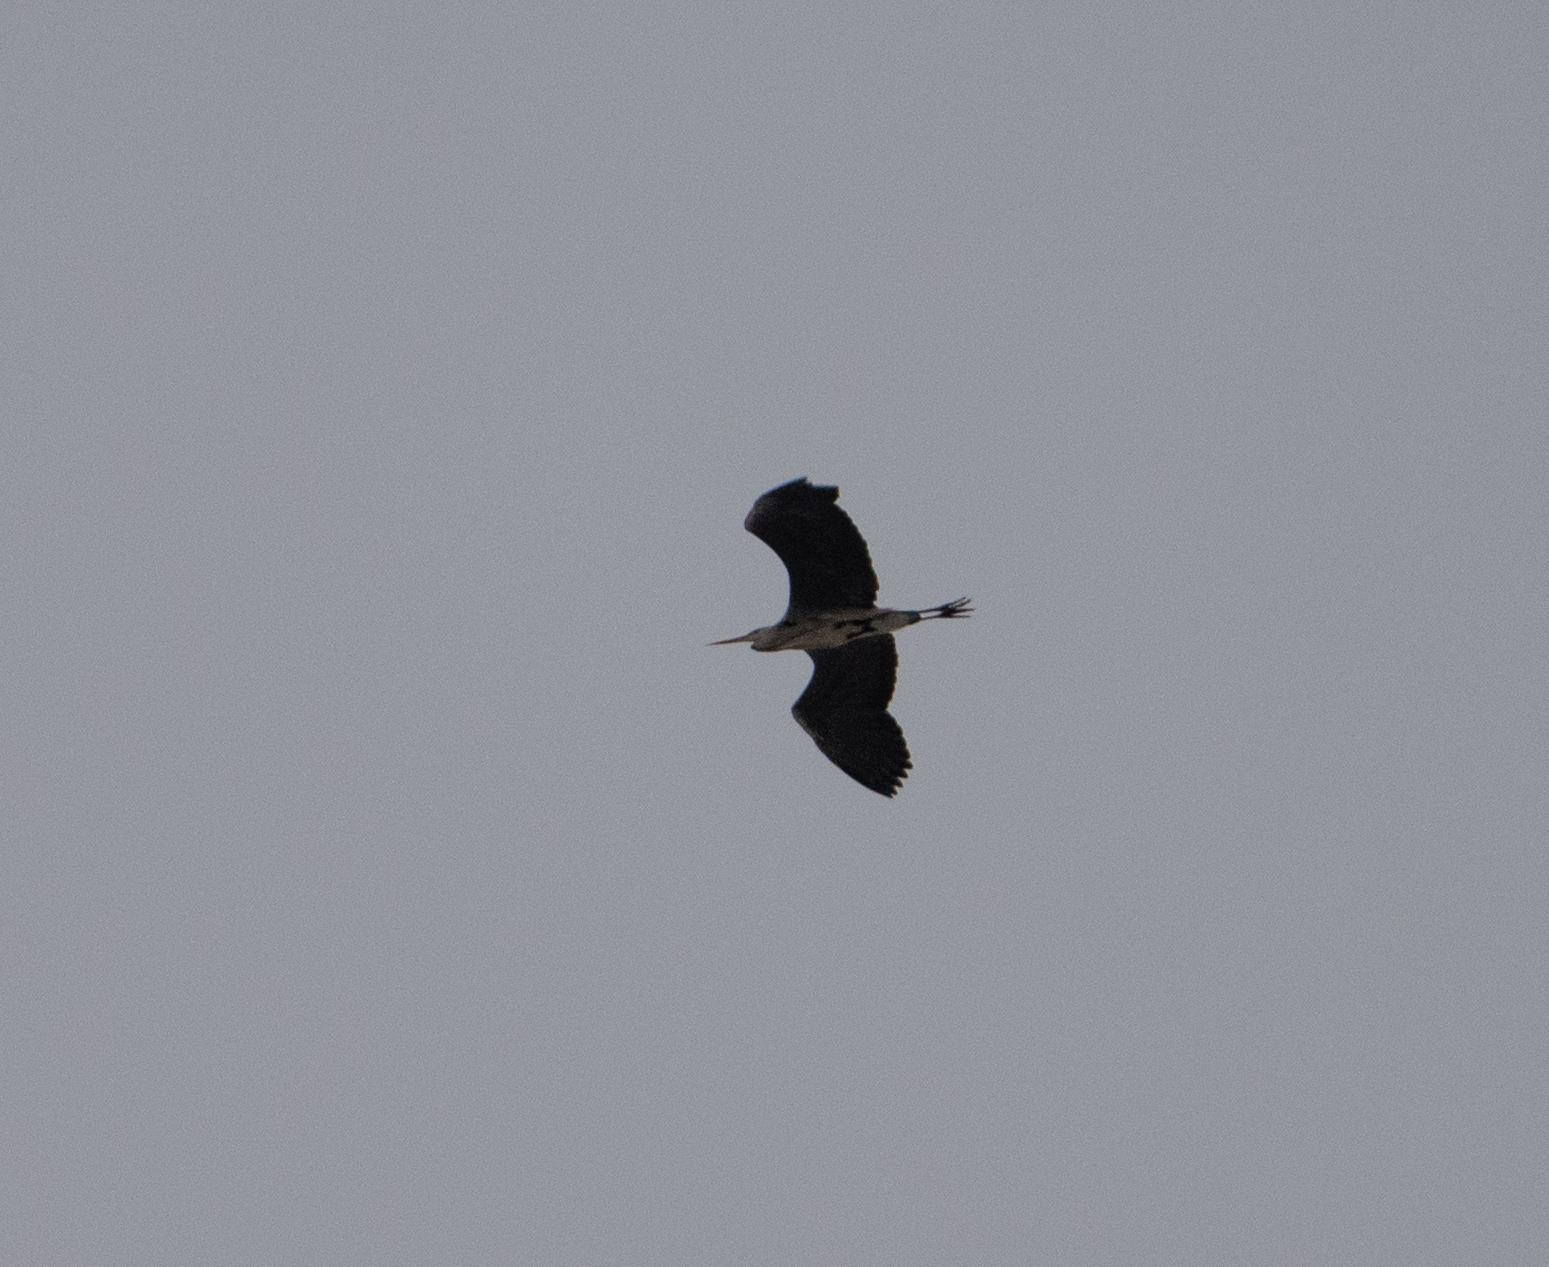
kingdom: Animalia
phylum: Chordata
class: Aves
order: Pelecaniformes
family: Ardeidae
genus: Ardea
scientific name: Ardea cinerea
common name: Grey heron
